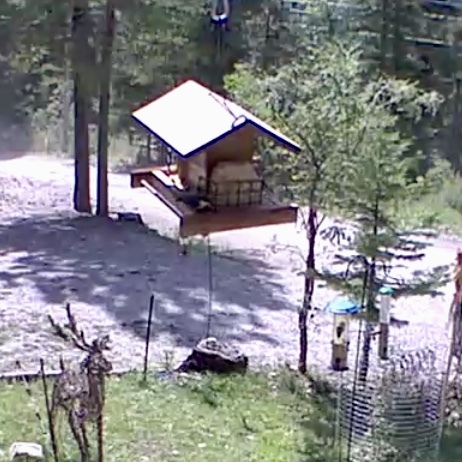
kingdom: Animalia
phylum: Chordata
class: Aves
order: Passeriformes
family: Sittidae
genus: Sitta
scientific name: Sitta pygmaea
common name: Pygmy nuthatch
